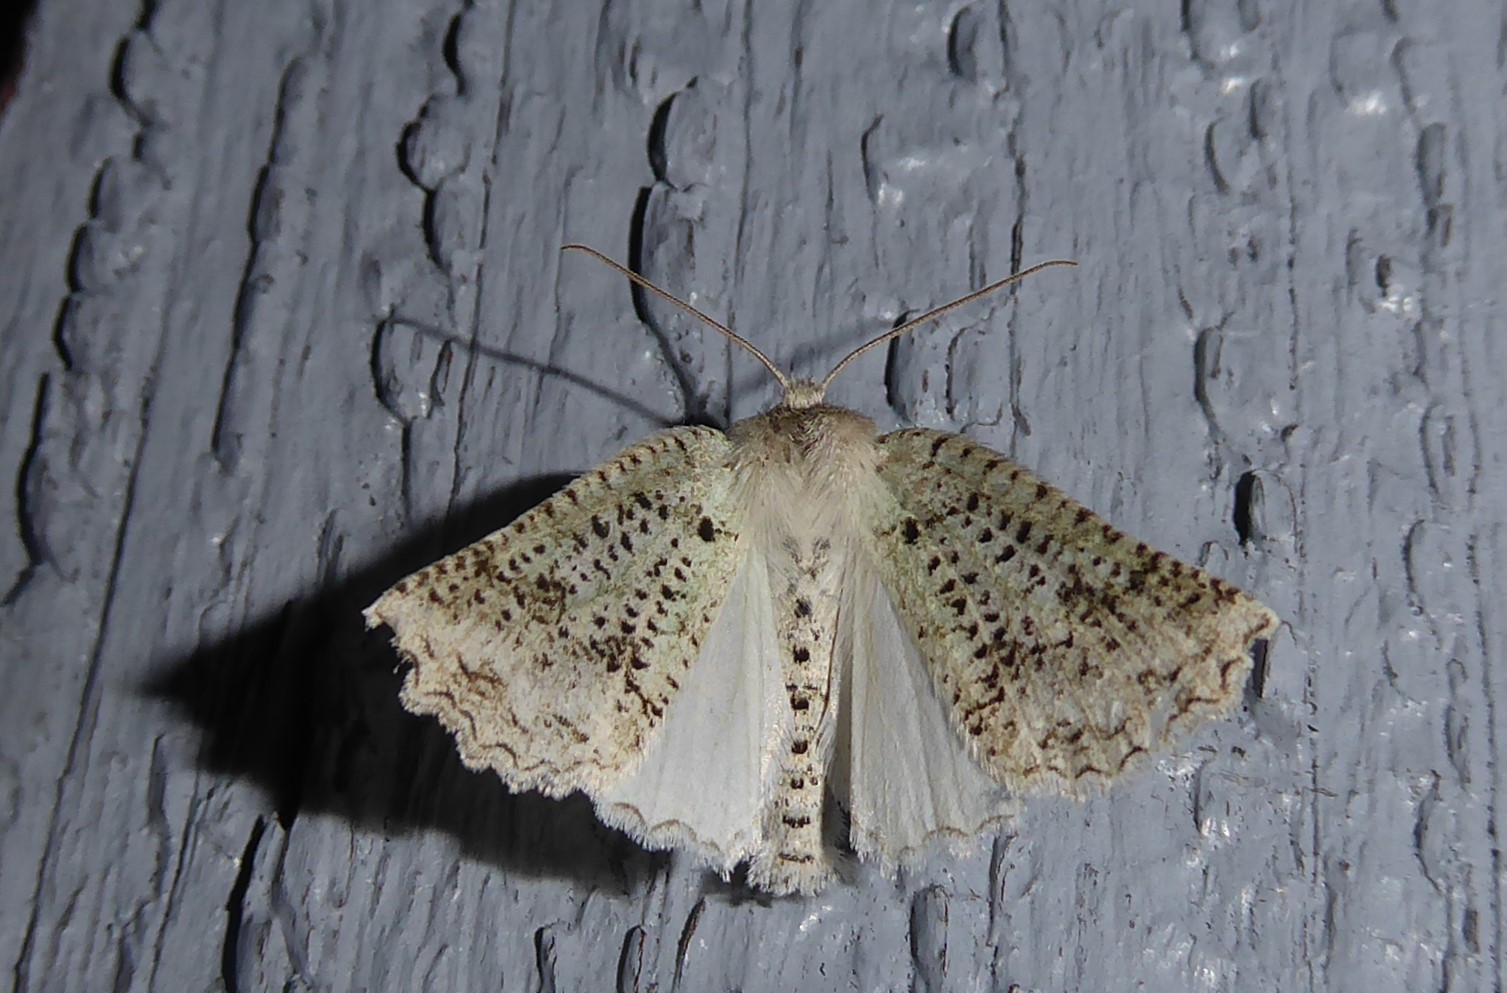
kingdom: Animalia
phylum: Arthropoda
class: Insecta
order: Lepidoptera
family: Geometridae
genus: Declana
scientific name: Declana floccosa
